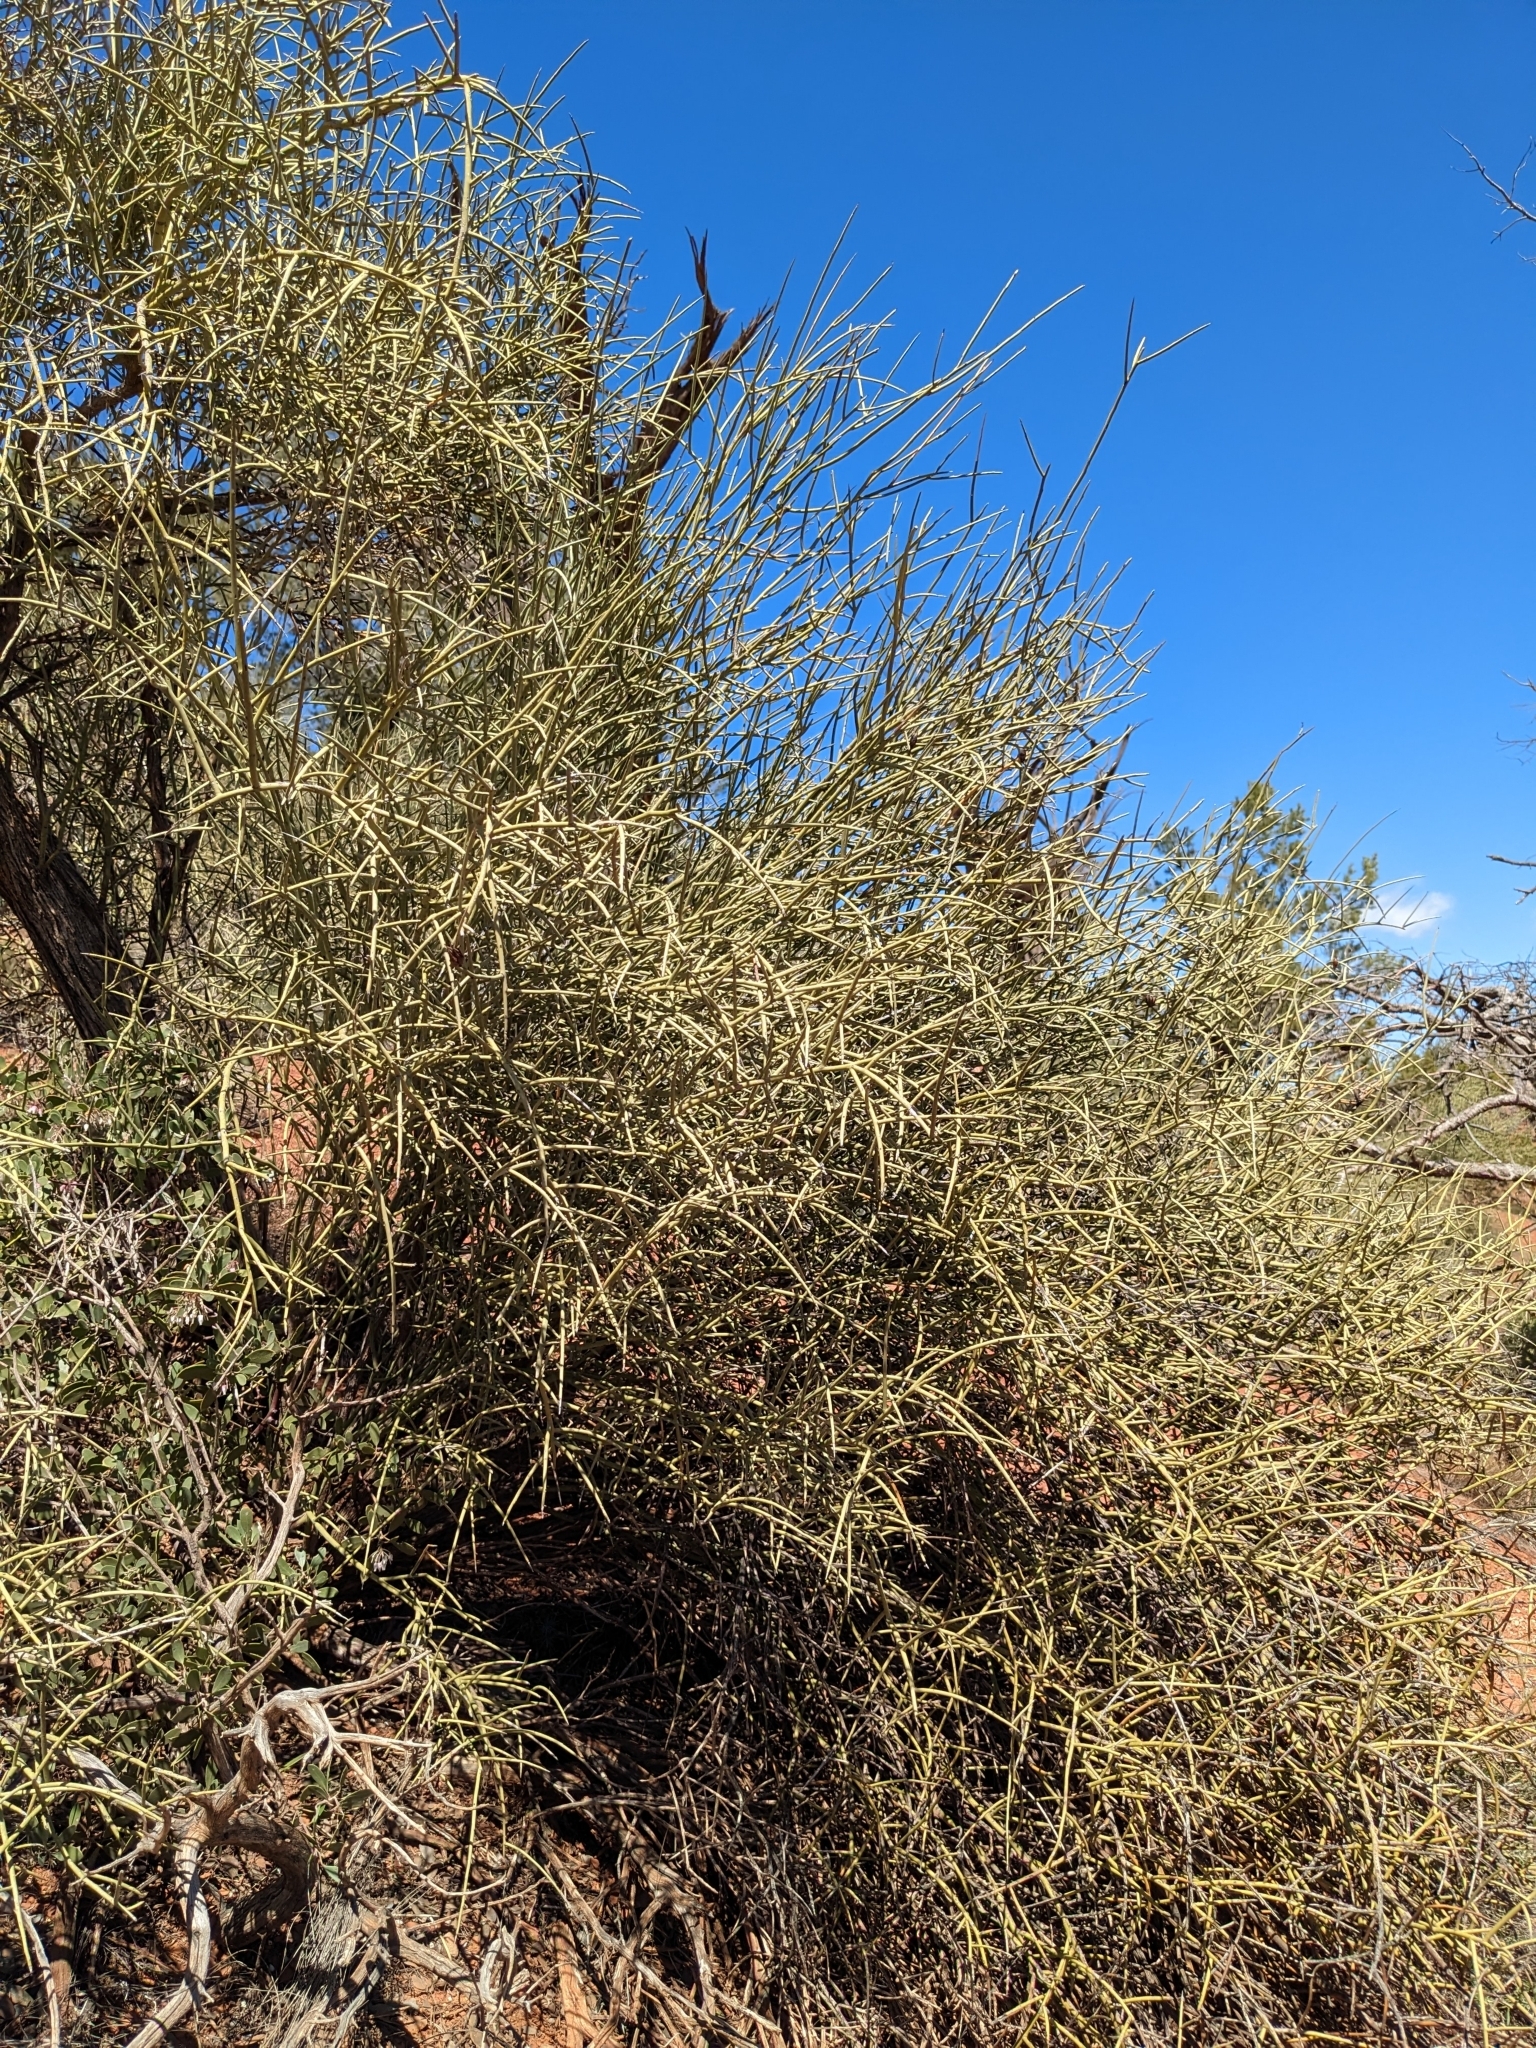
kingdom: Plantae
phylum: Tracheophyta
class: Magnoliopsida
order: Celastrales
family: Celastraceae
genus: Canotia
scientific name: Canotia holacantha
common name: Crucifixion thorns
